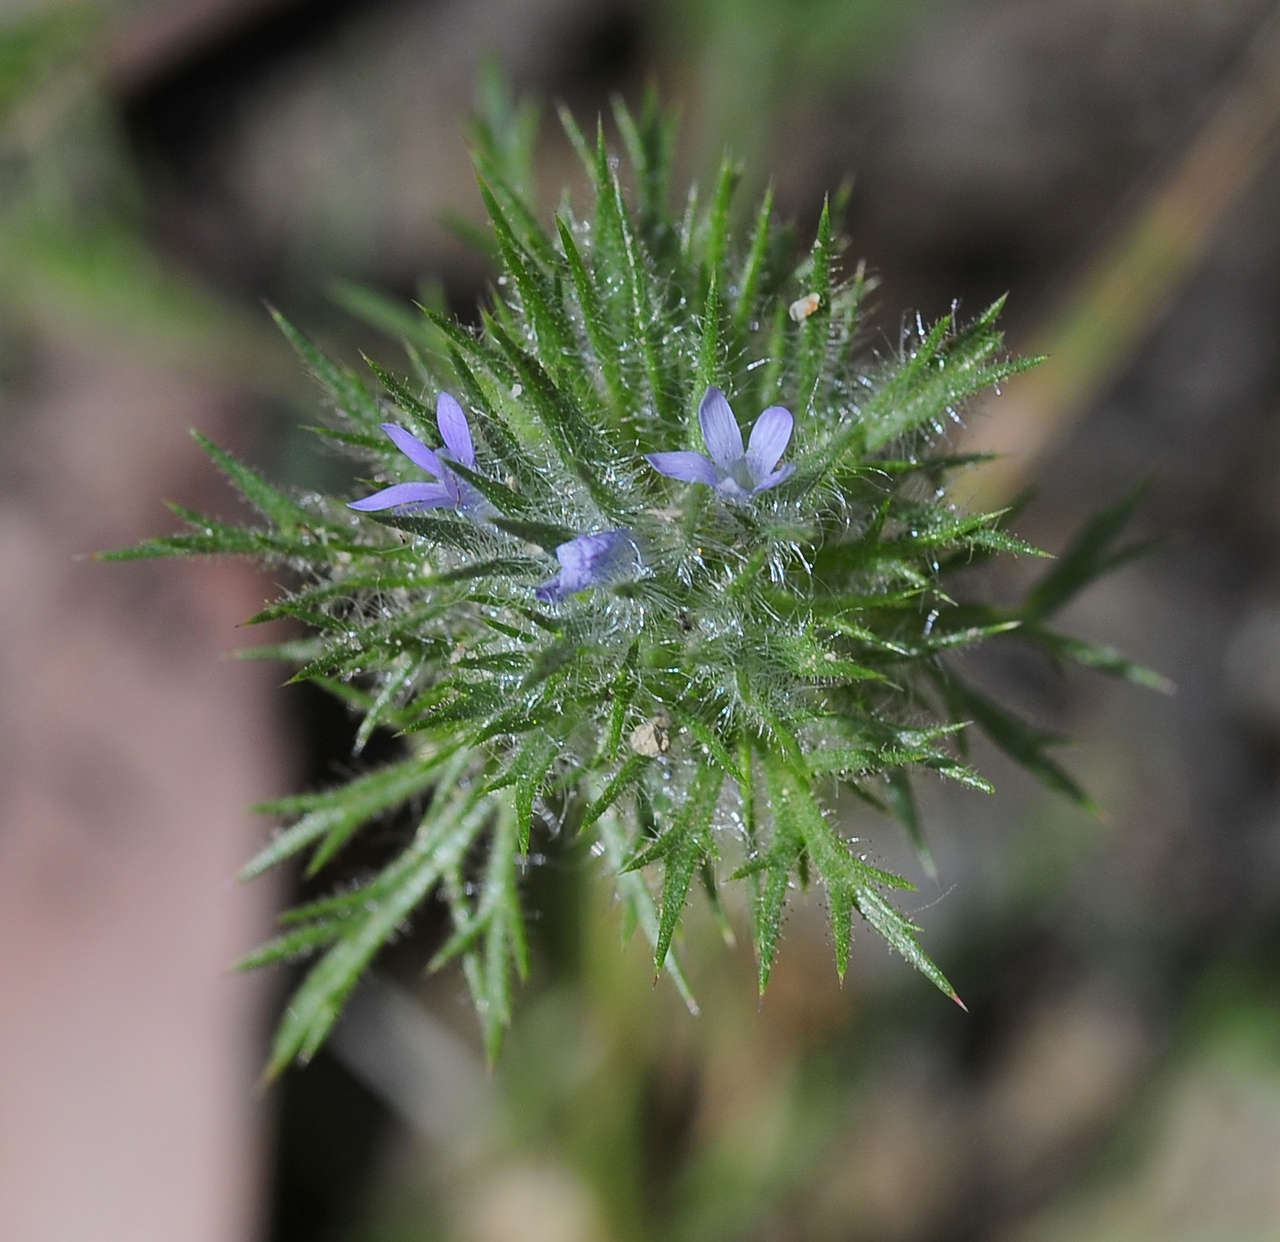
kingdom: Plantae
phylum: Tracheophyta
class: Magnoliopsida
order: Ericales
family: Polemoniaceae
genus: Navarretia
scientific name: Navarretia squarrosa
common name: Skunkweed
